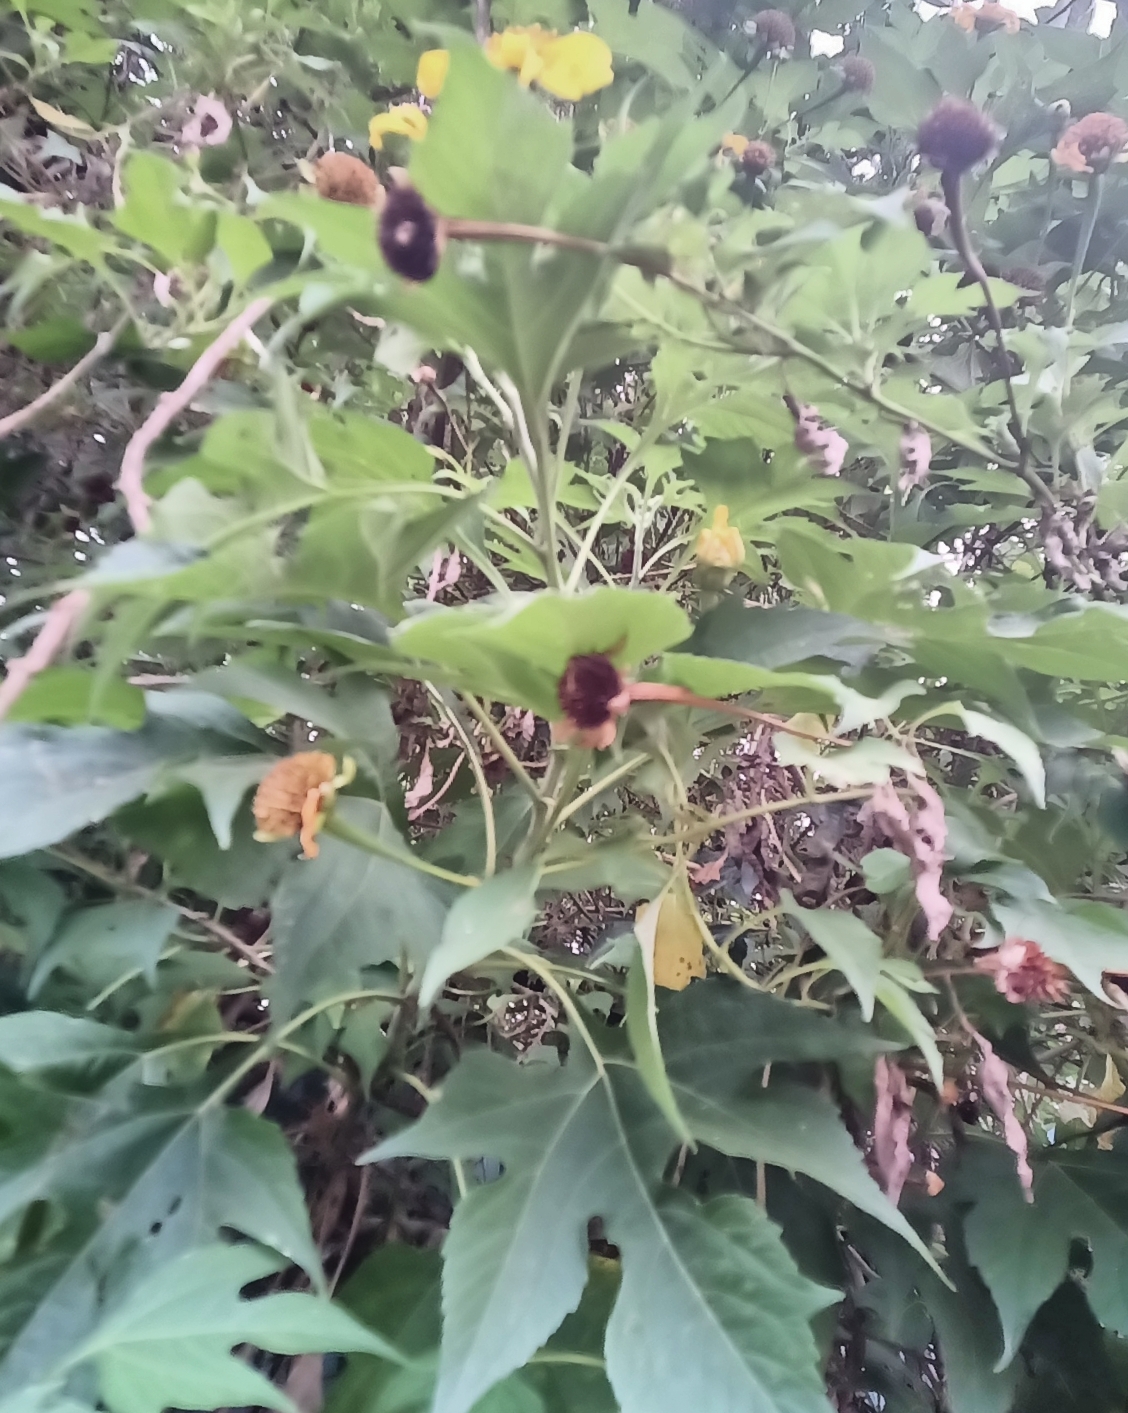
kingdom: Plantae
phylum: Tracheophyta
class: Magnoliopsida
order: Asterales
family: Asteraceae
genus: Tithonia
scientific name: Tithonia diversifolia
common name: Tree marigold
